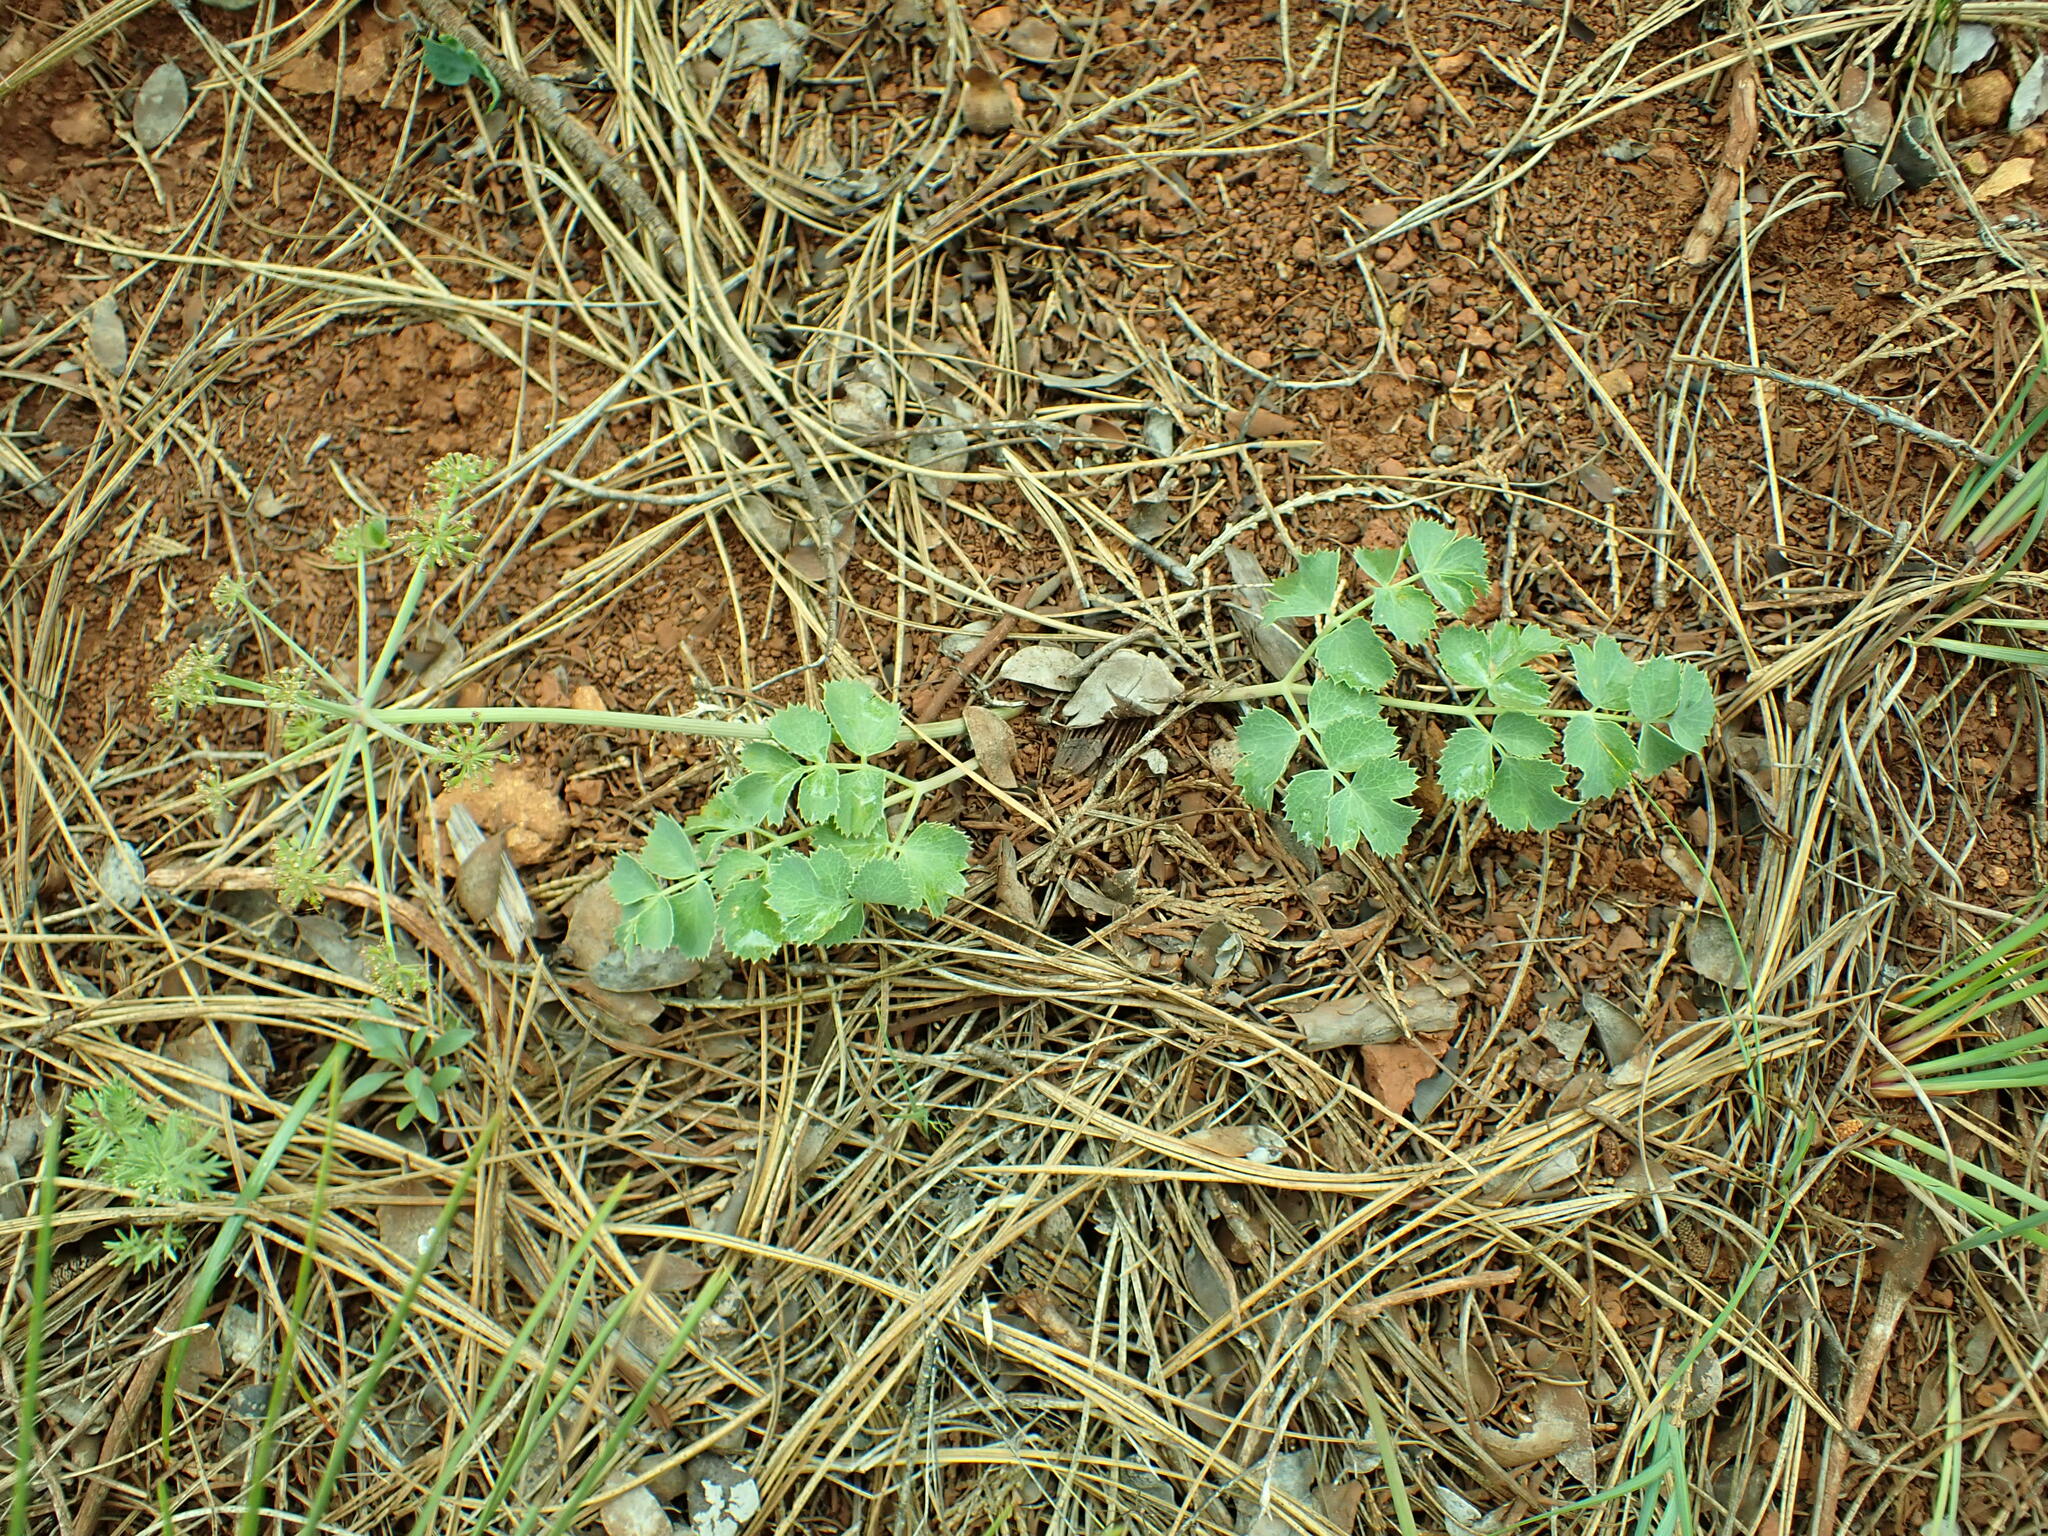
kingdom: Plantae
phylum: Tracheophyta
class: Magnoliopsida
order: Apiales
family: Apiaceae
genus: Lomatium
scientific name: Lomatium howellii
